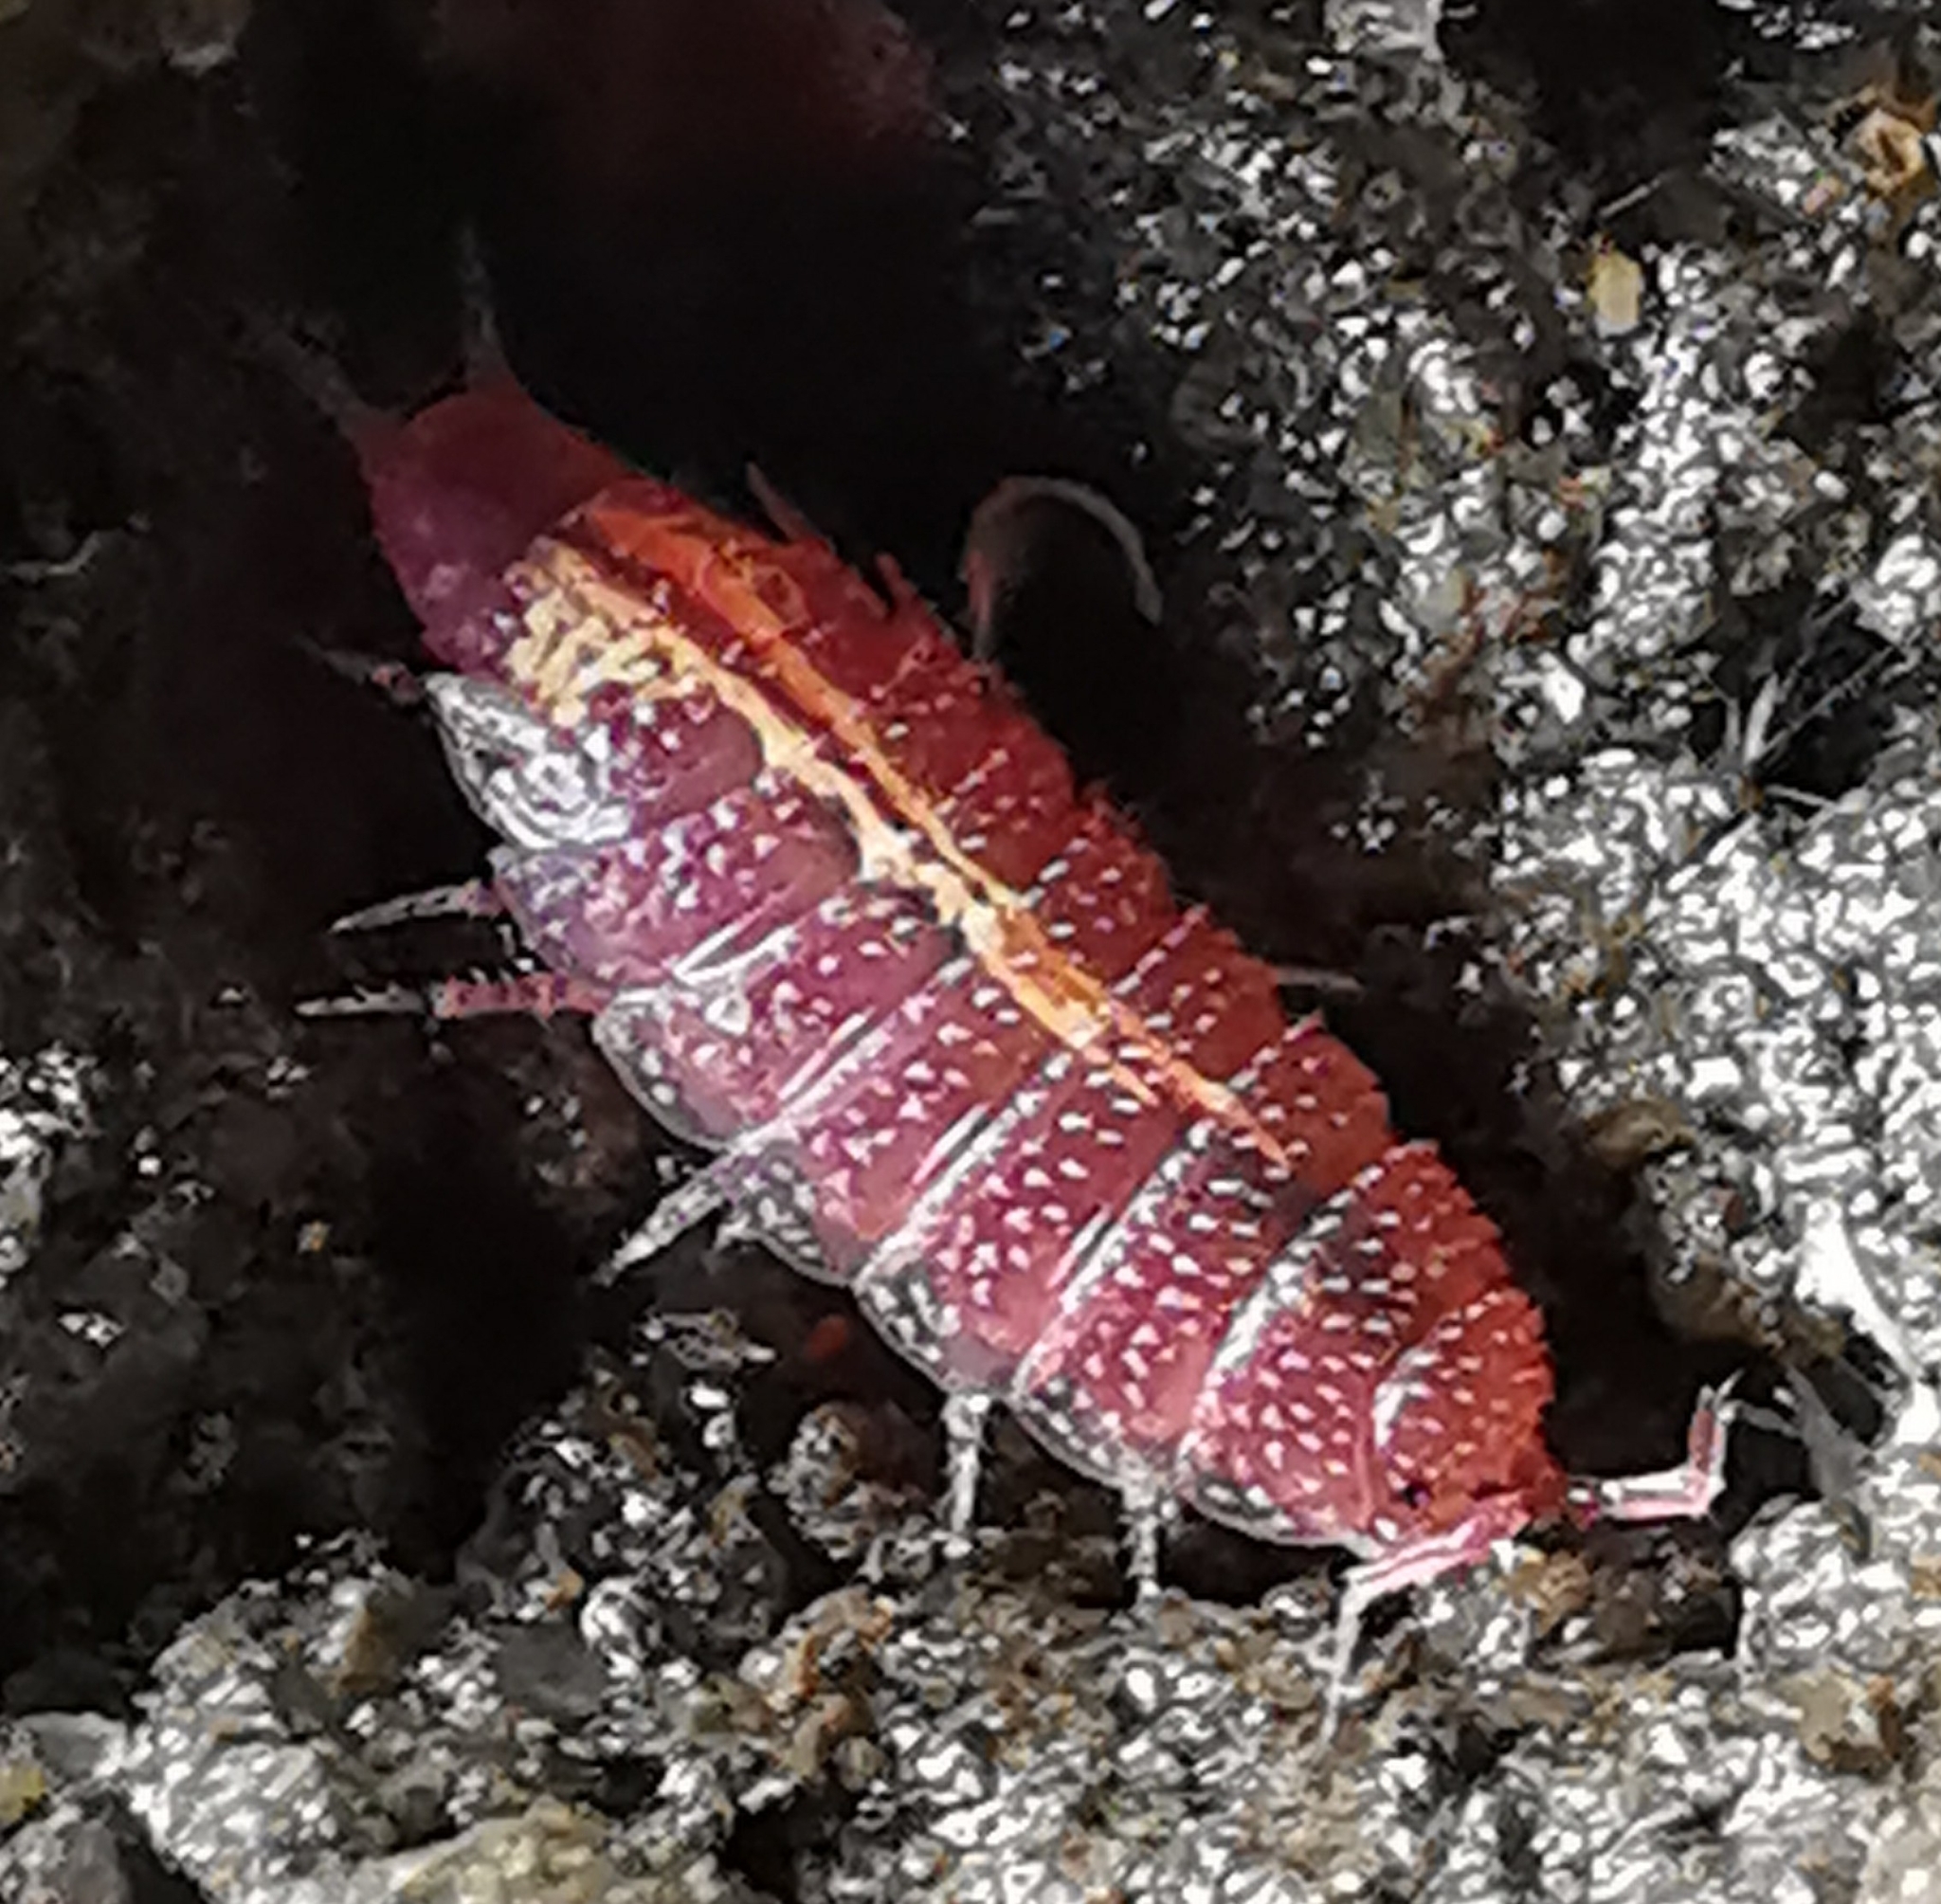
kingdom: Animalia
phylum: Arthropoda
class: Malacostraca
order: Isopoda
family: Trichoniscidae
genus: Androniscus
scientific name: Androniscus dentiger
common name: Rosy woodlouse
